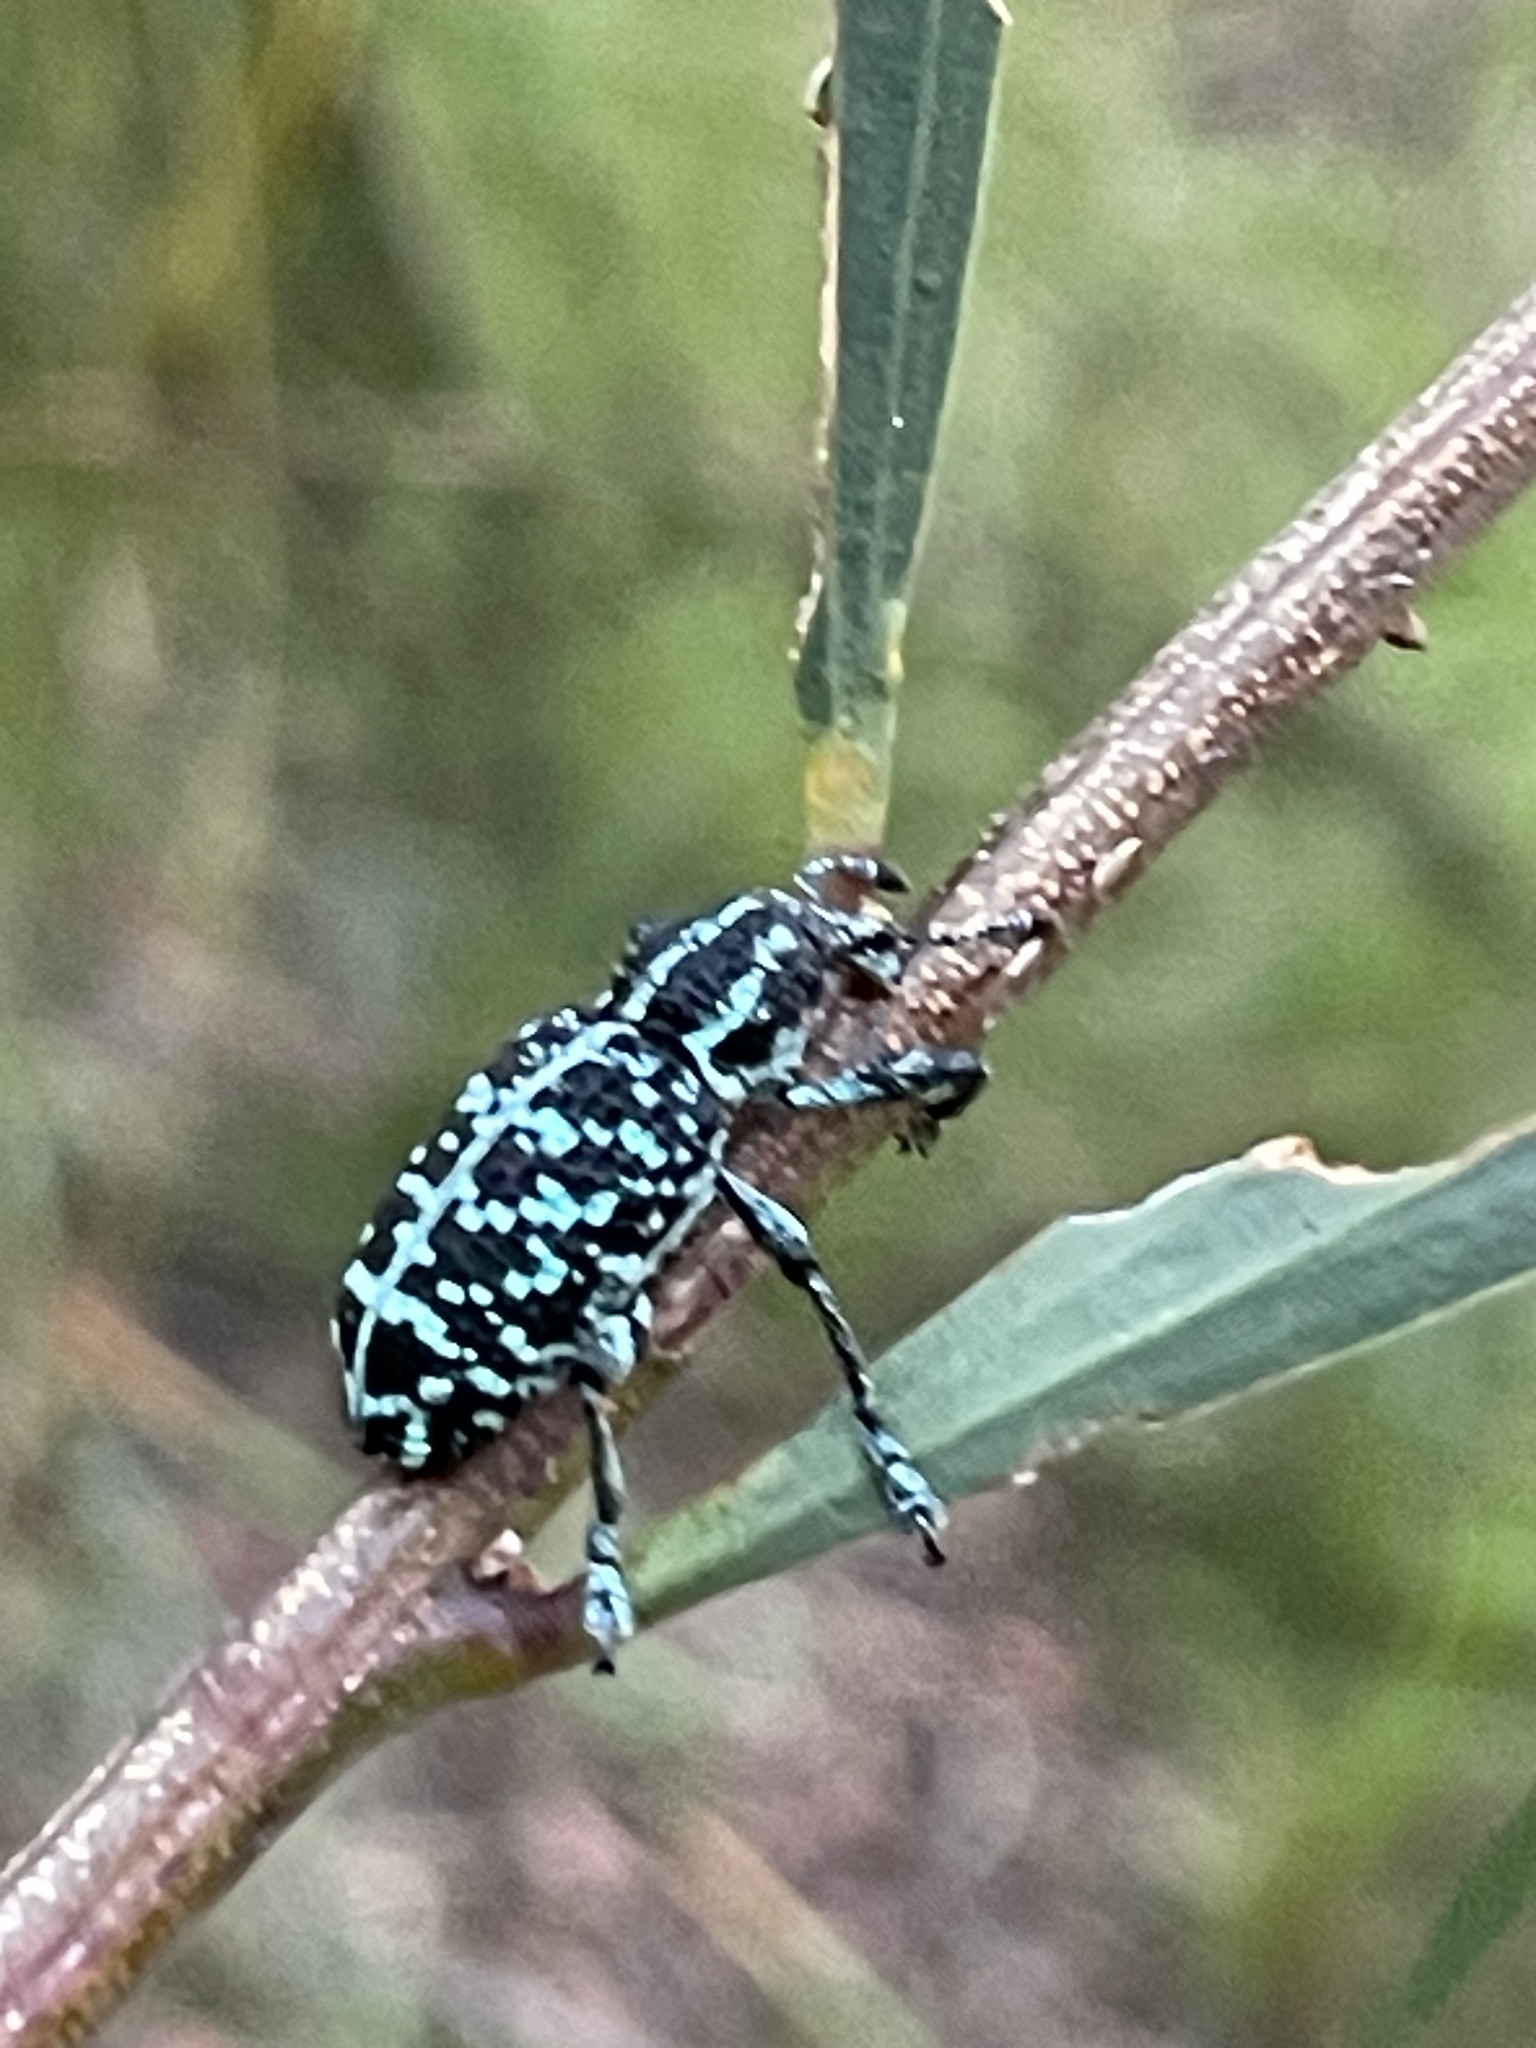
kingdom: Animalia
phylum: Arthropoda
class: Insecta
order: Coleoptera
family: Curculionidae
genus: Chrysolopus
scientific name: Chrysolopus spectabilis
